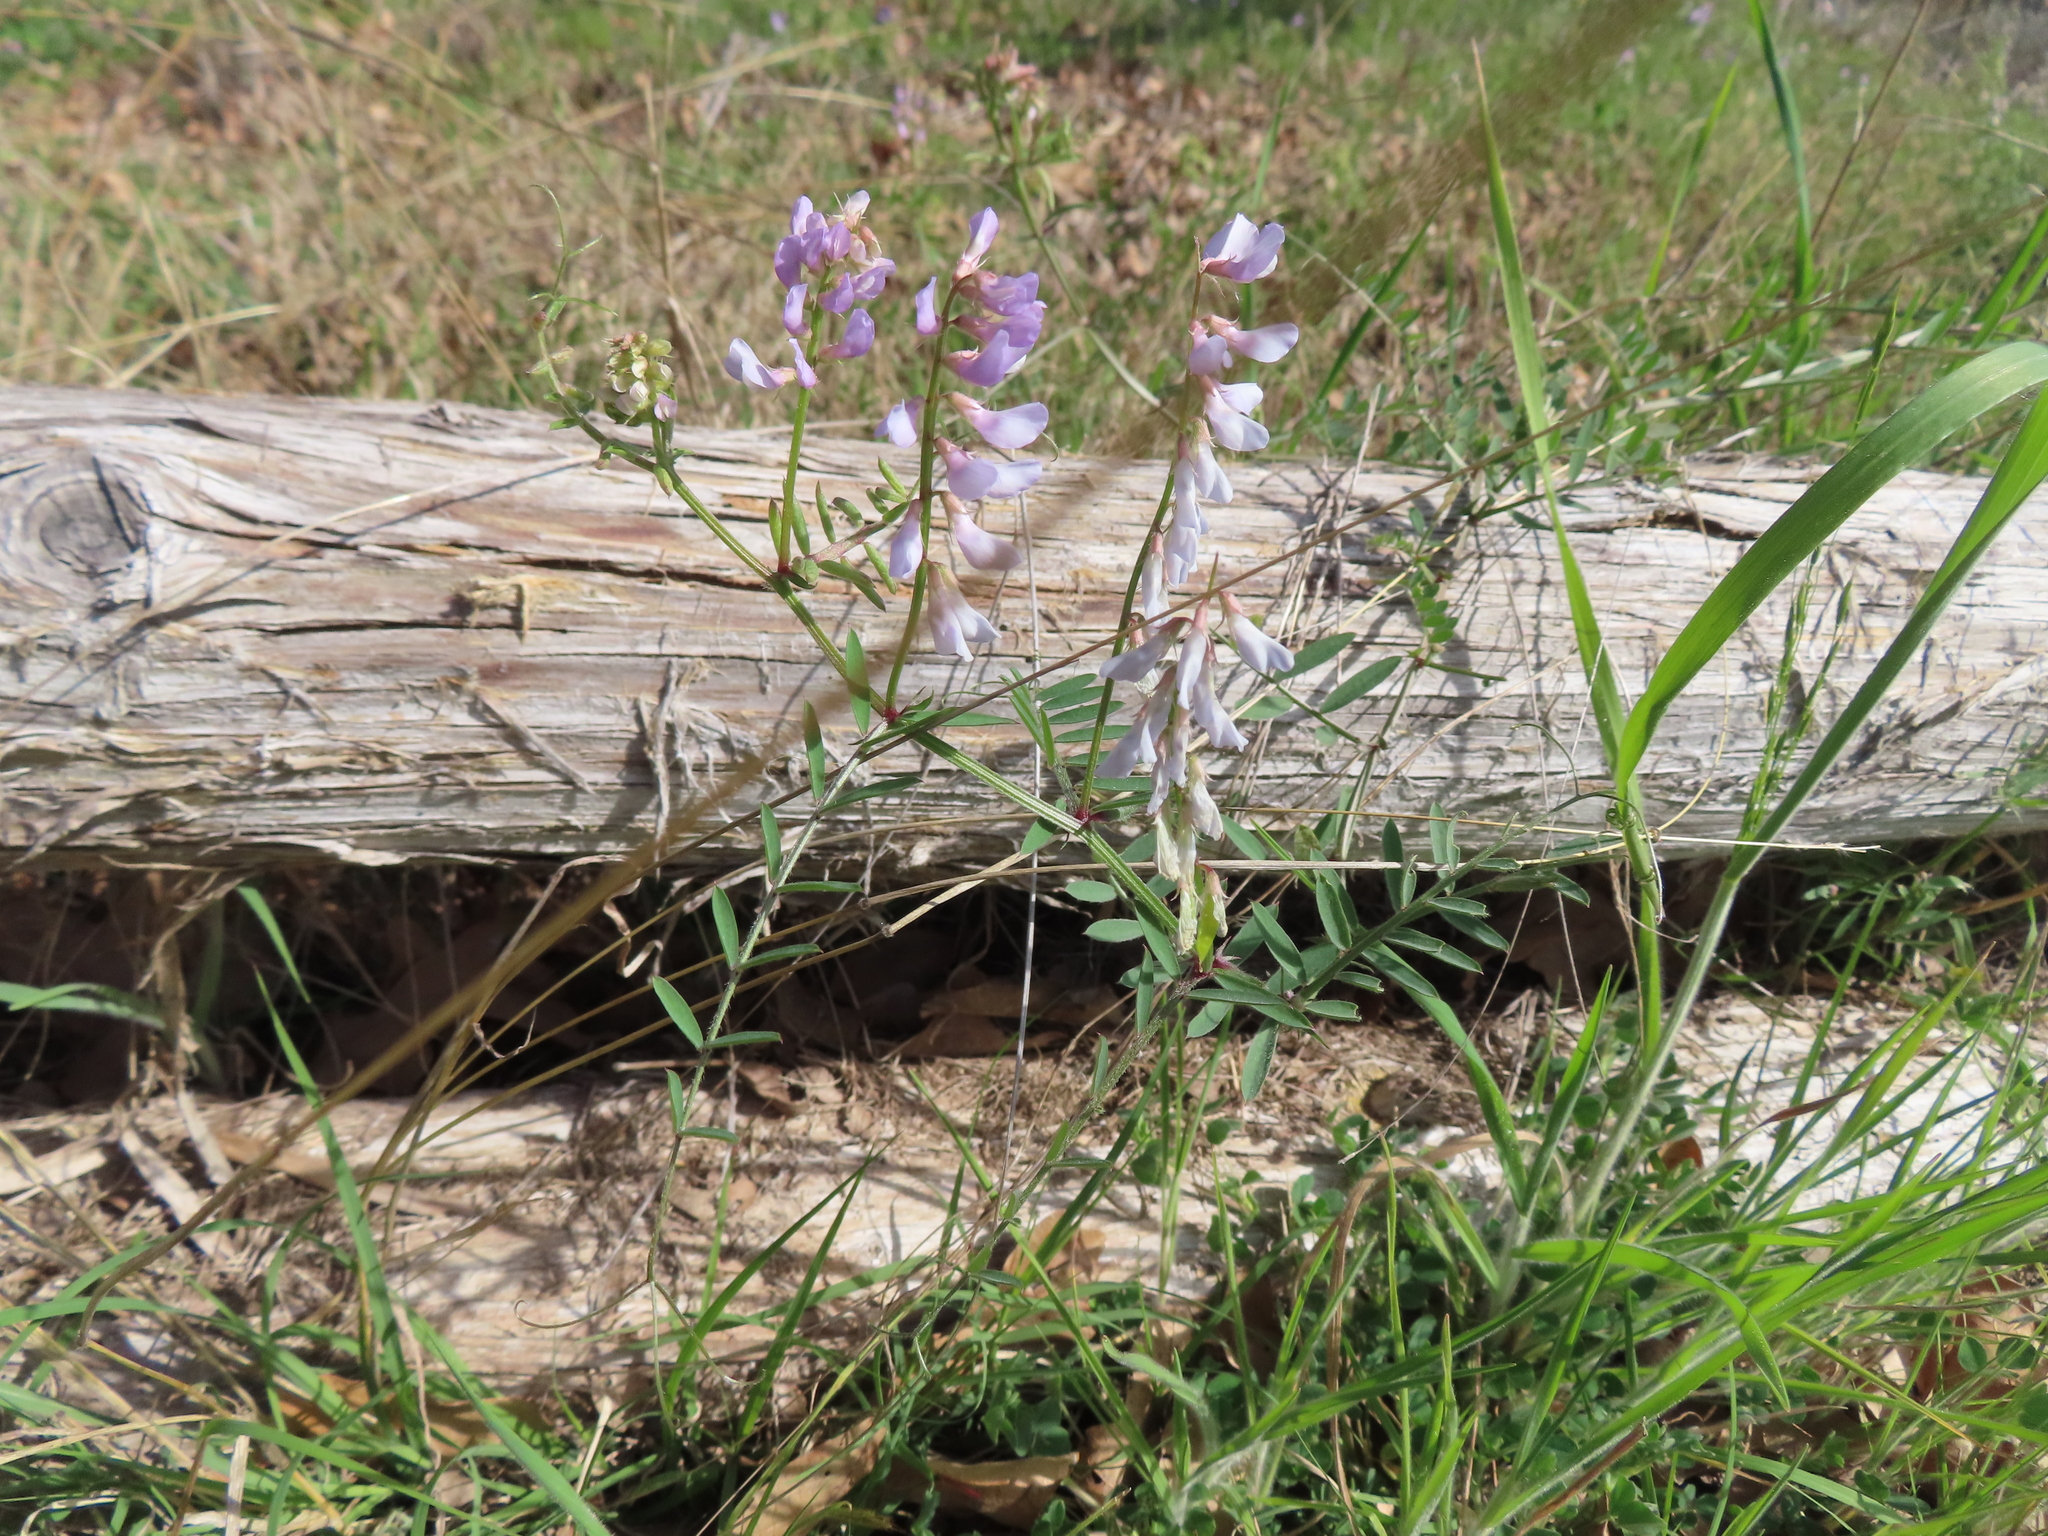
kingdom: Plantae
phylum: Tracheophyta
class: Magnoliopsida
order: Fabales
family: Fabaceae
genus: Vicia
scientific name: Vicia ludoviciana
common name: Louisiana vetch
